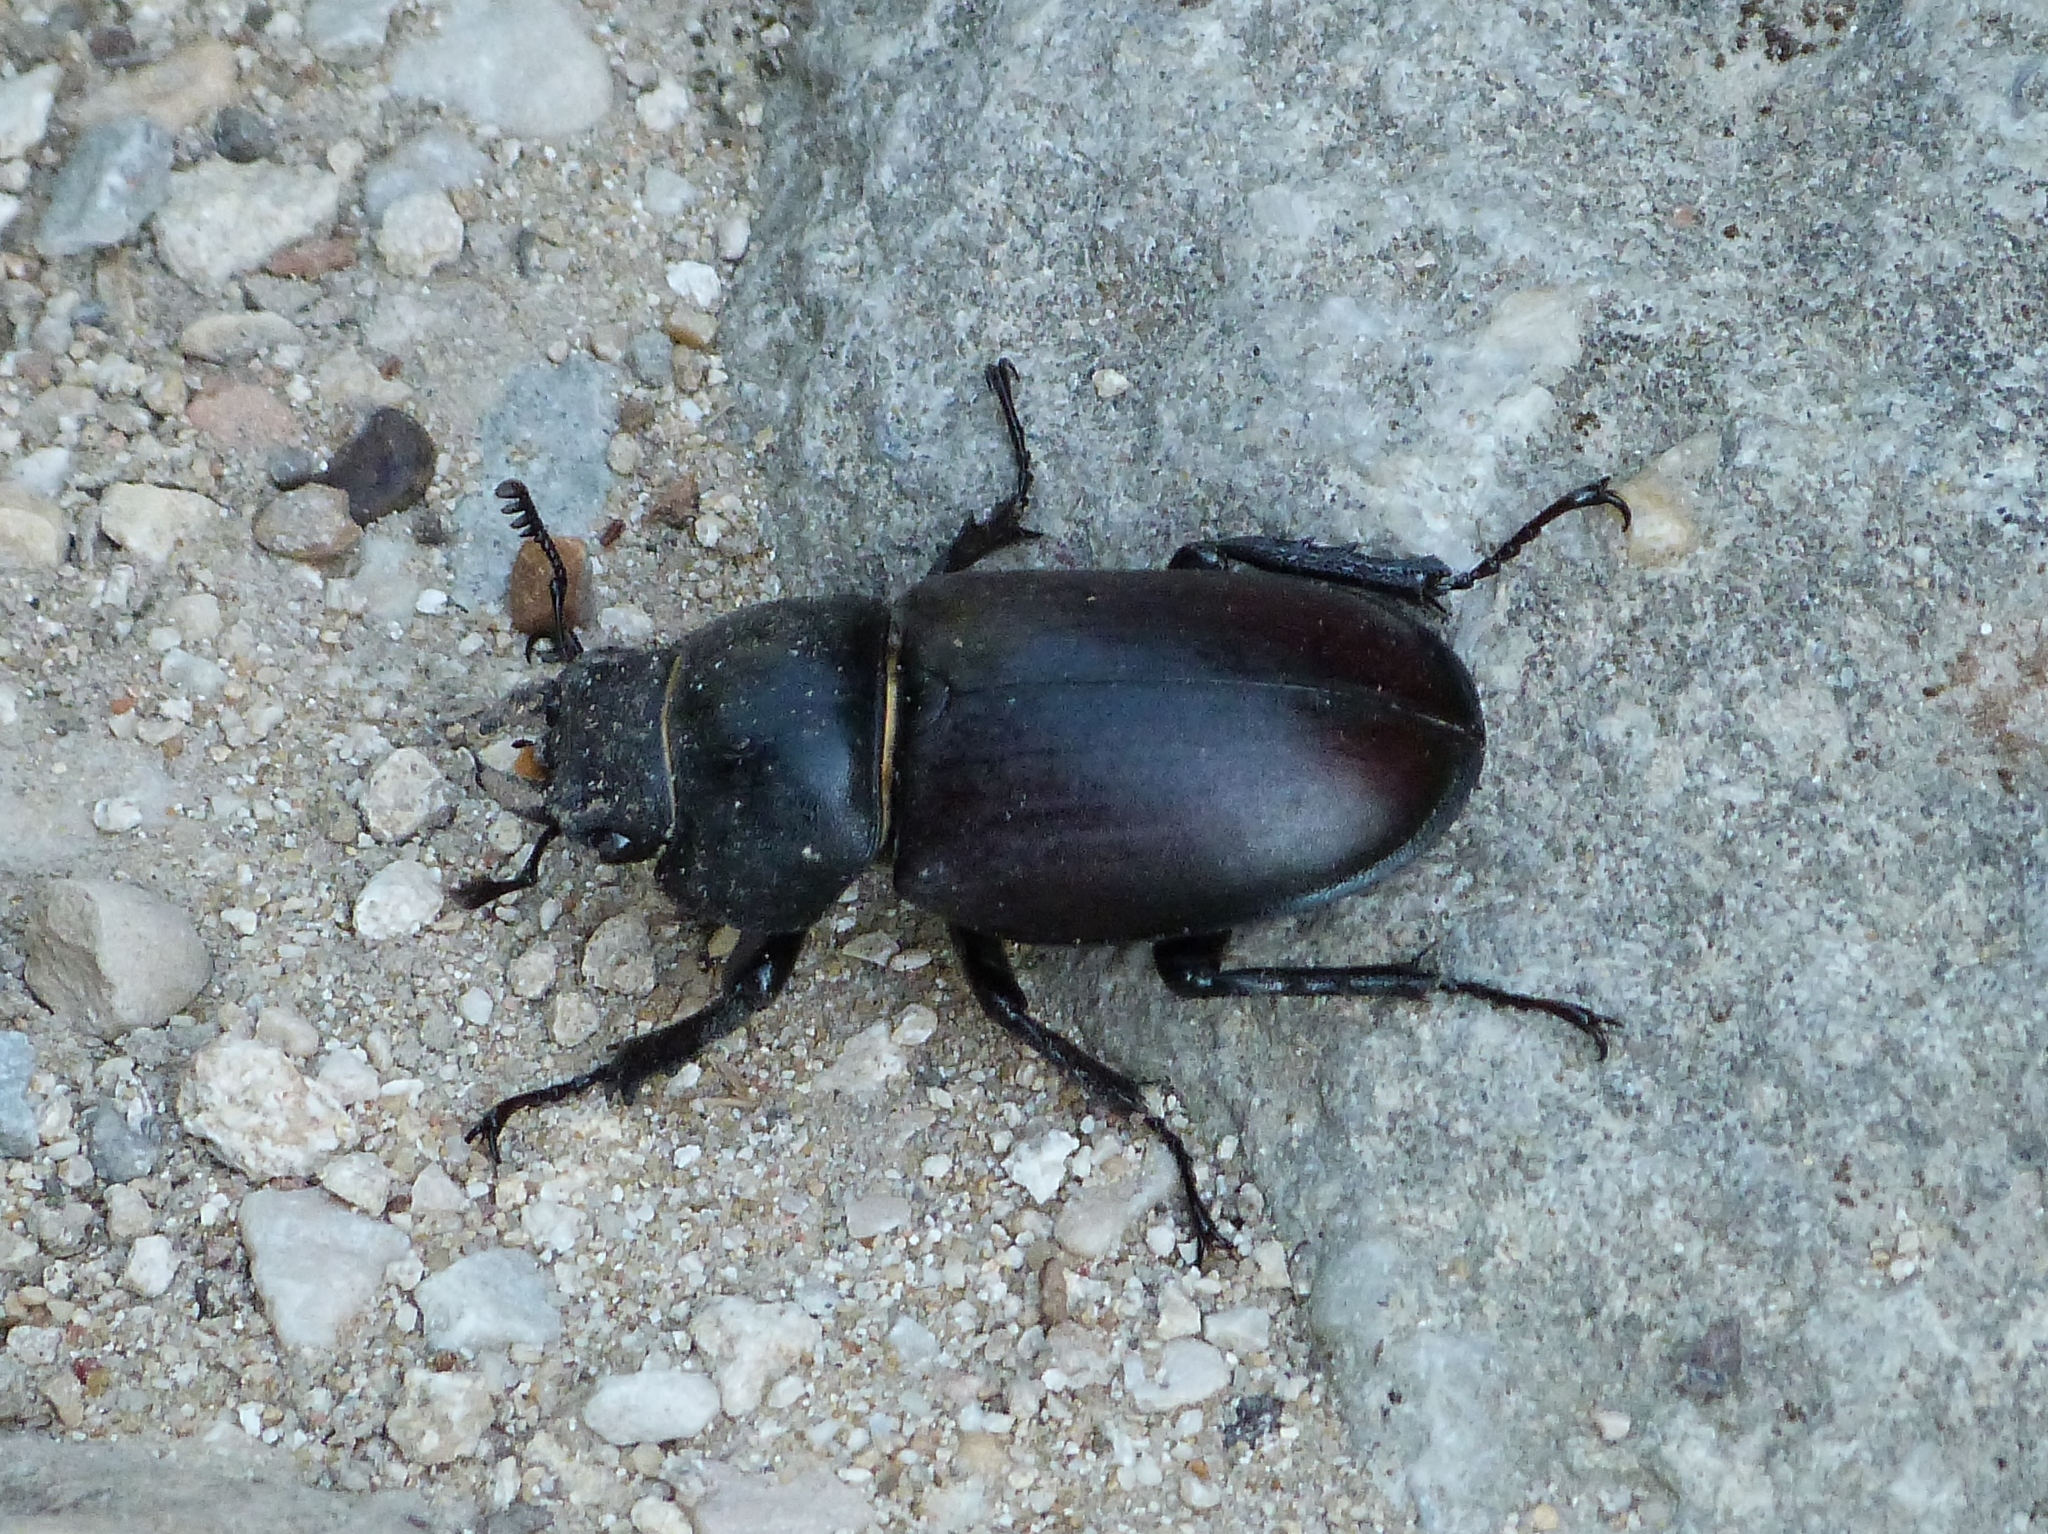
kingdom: Animalia
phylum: Arthropoda
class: Insecta
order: Coleoptera
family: Lucanidae
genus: Lucanus
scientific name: Lucanus cervus
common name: Stag beetle
